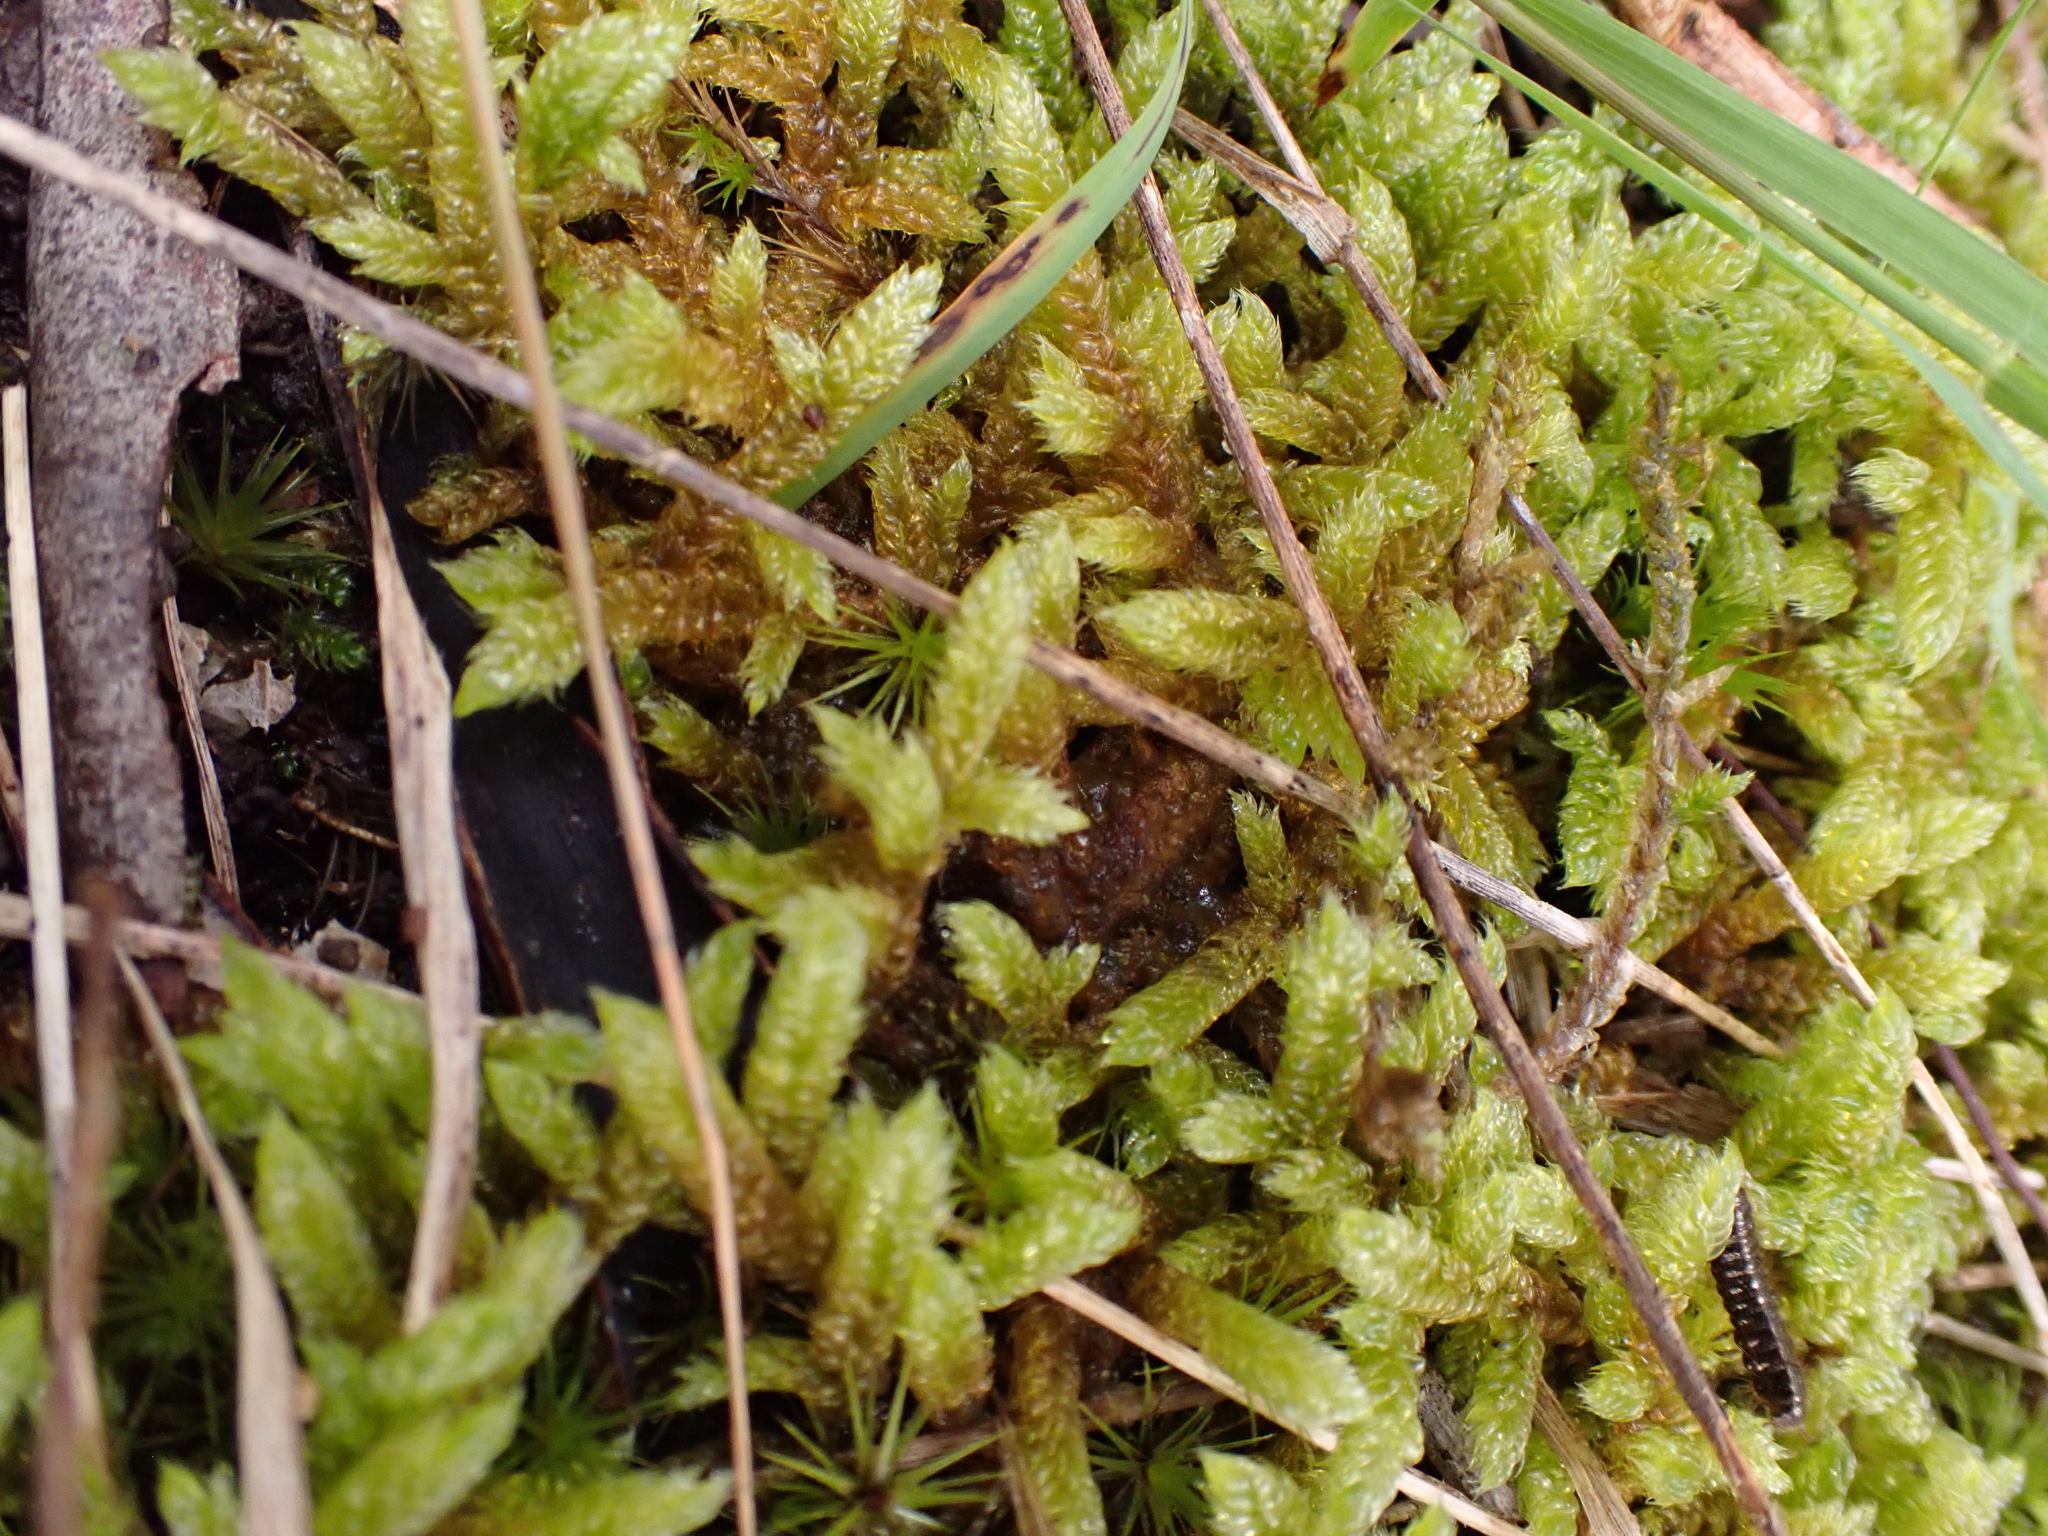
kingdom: Plantae
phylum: Bryophyta
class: Bryopsida
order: Hypnales
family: Hypnaceae
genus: Hypnum
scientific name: Hypnum cupressiforme
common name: Cypress-leaved plait-moss
